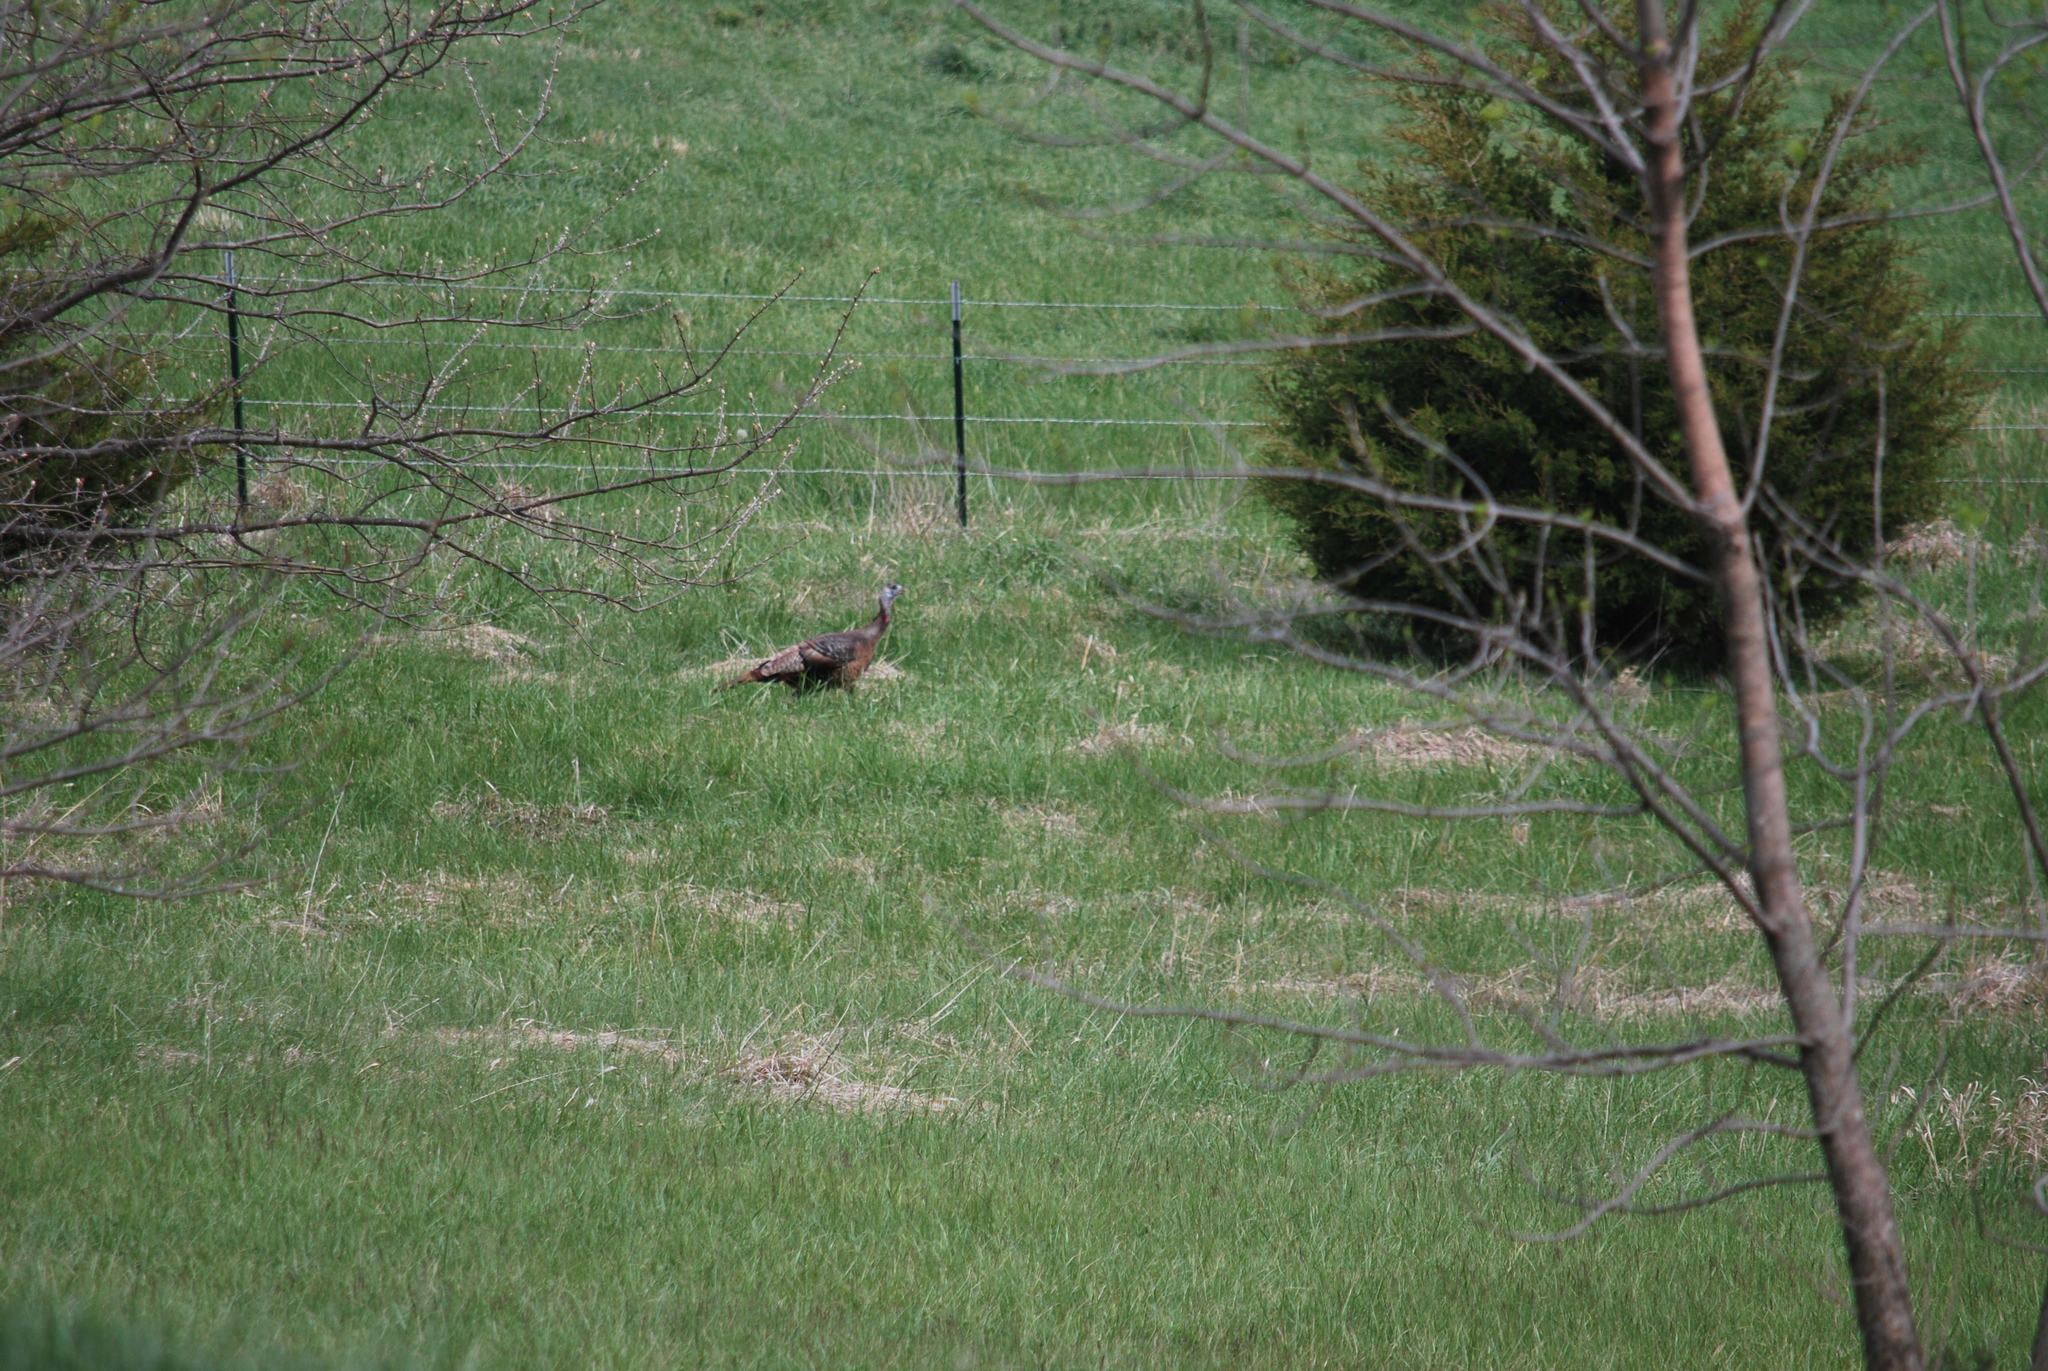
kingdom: Animalia
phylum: Chordata
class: Aves
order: Galliformes
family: Phasianidae
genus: Meleagris
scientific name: Meleagris gallopavo
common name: Wild turkey
